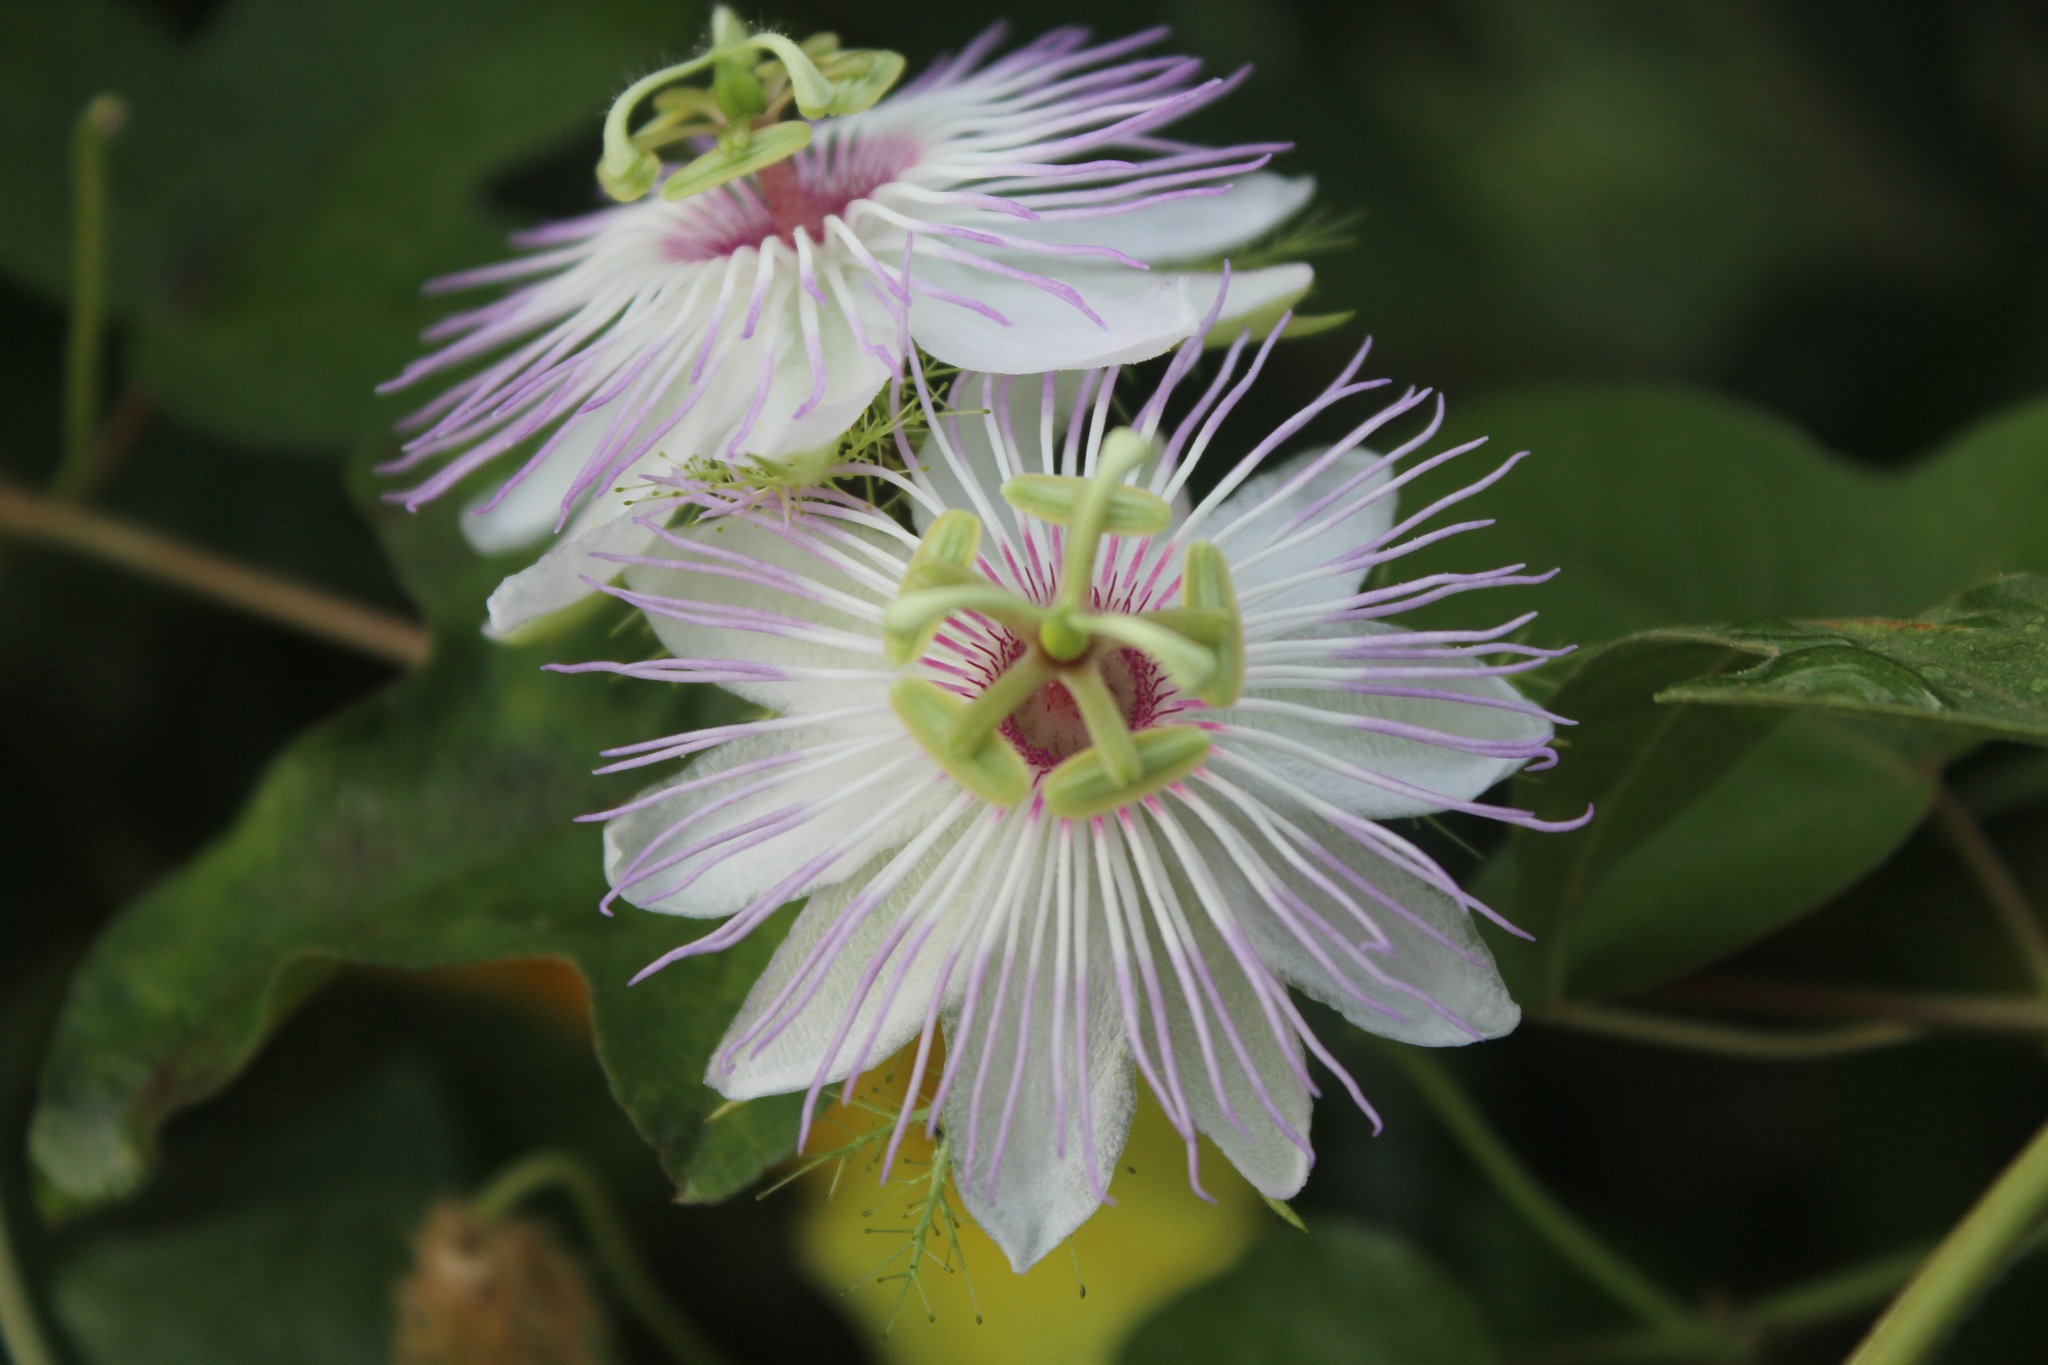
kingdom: Plantae
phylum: Tracheophyta
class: Magnoliopsida
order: Malpighiales
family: Passifloraceae
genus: Passiflora
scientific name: Passiflora ciliata
